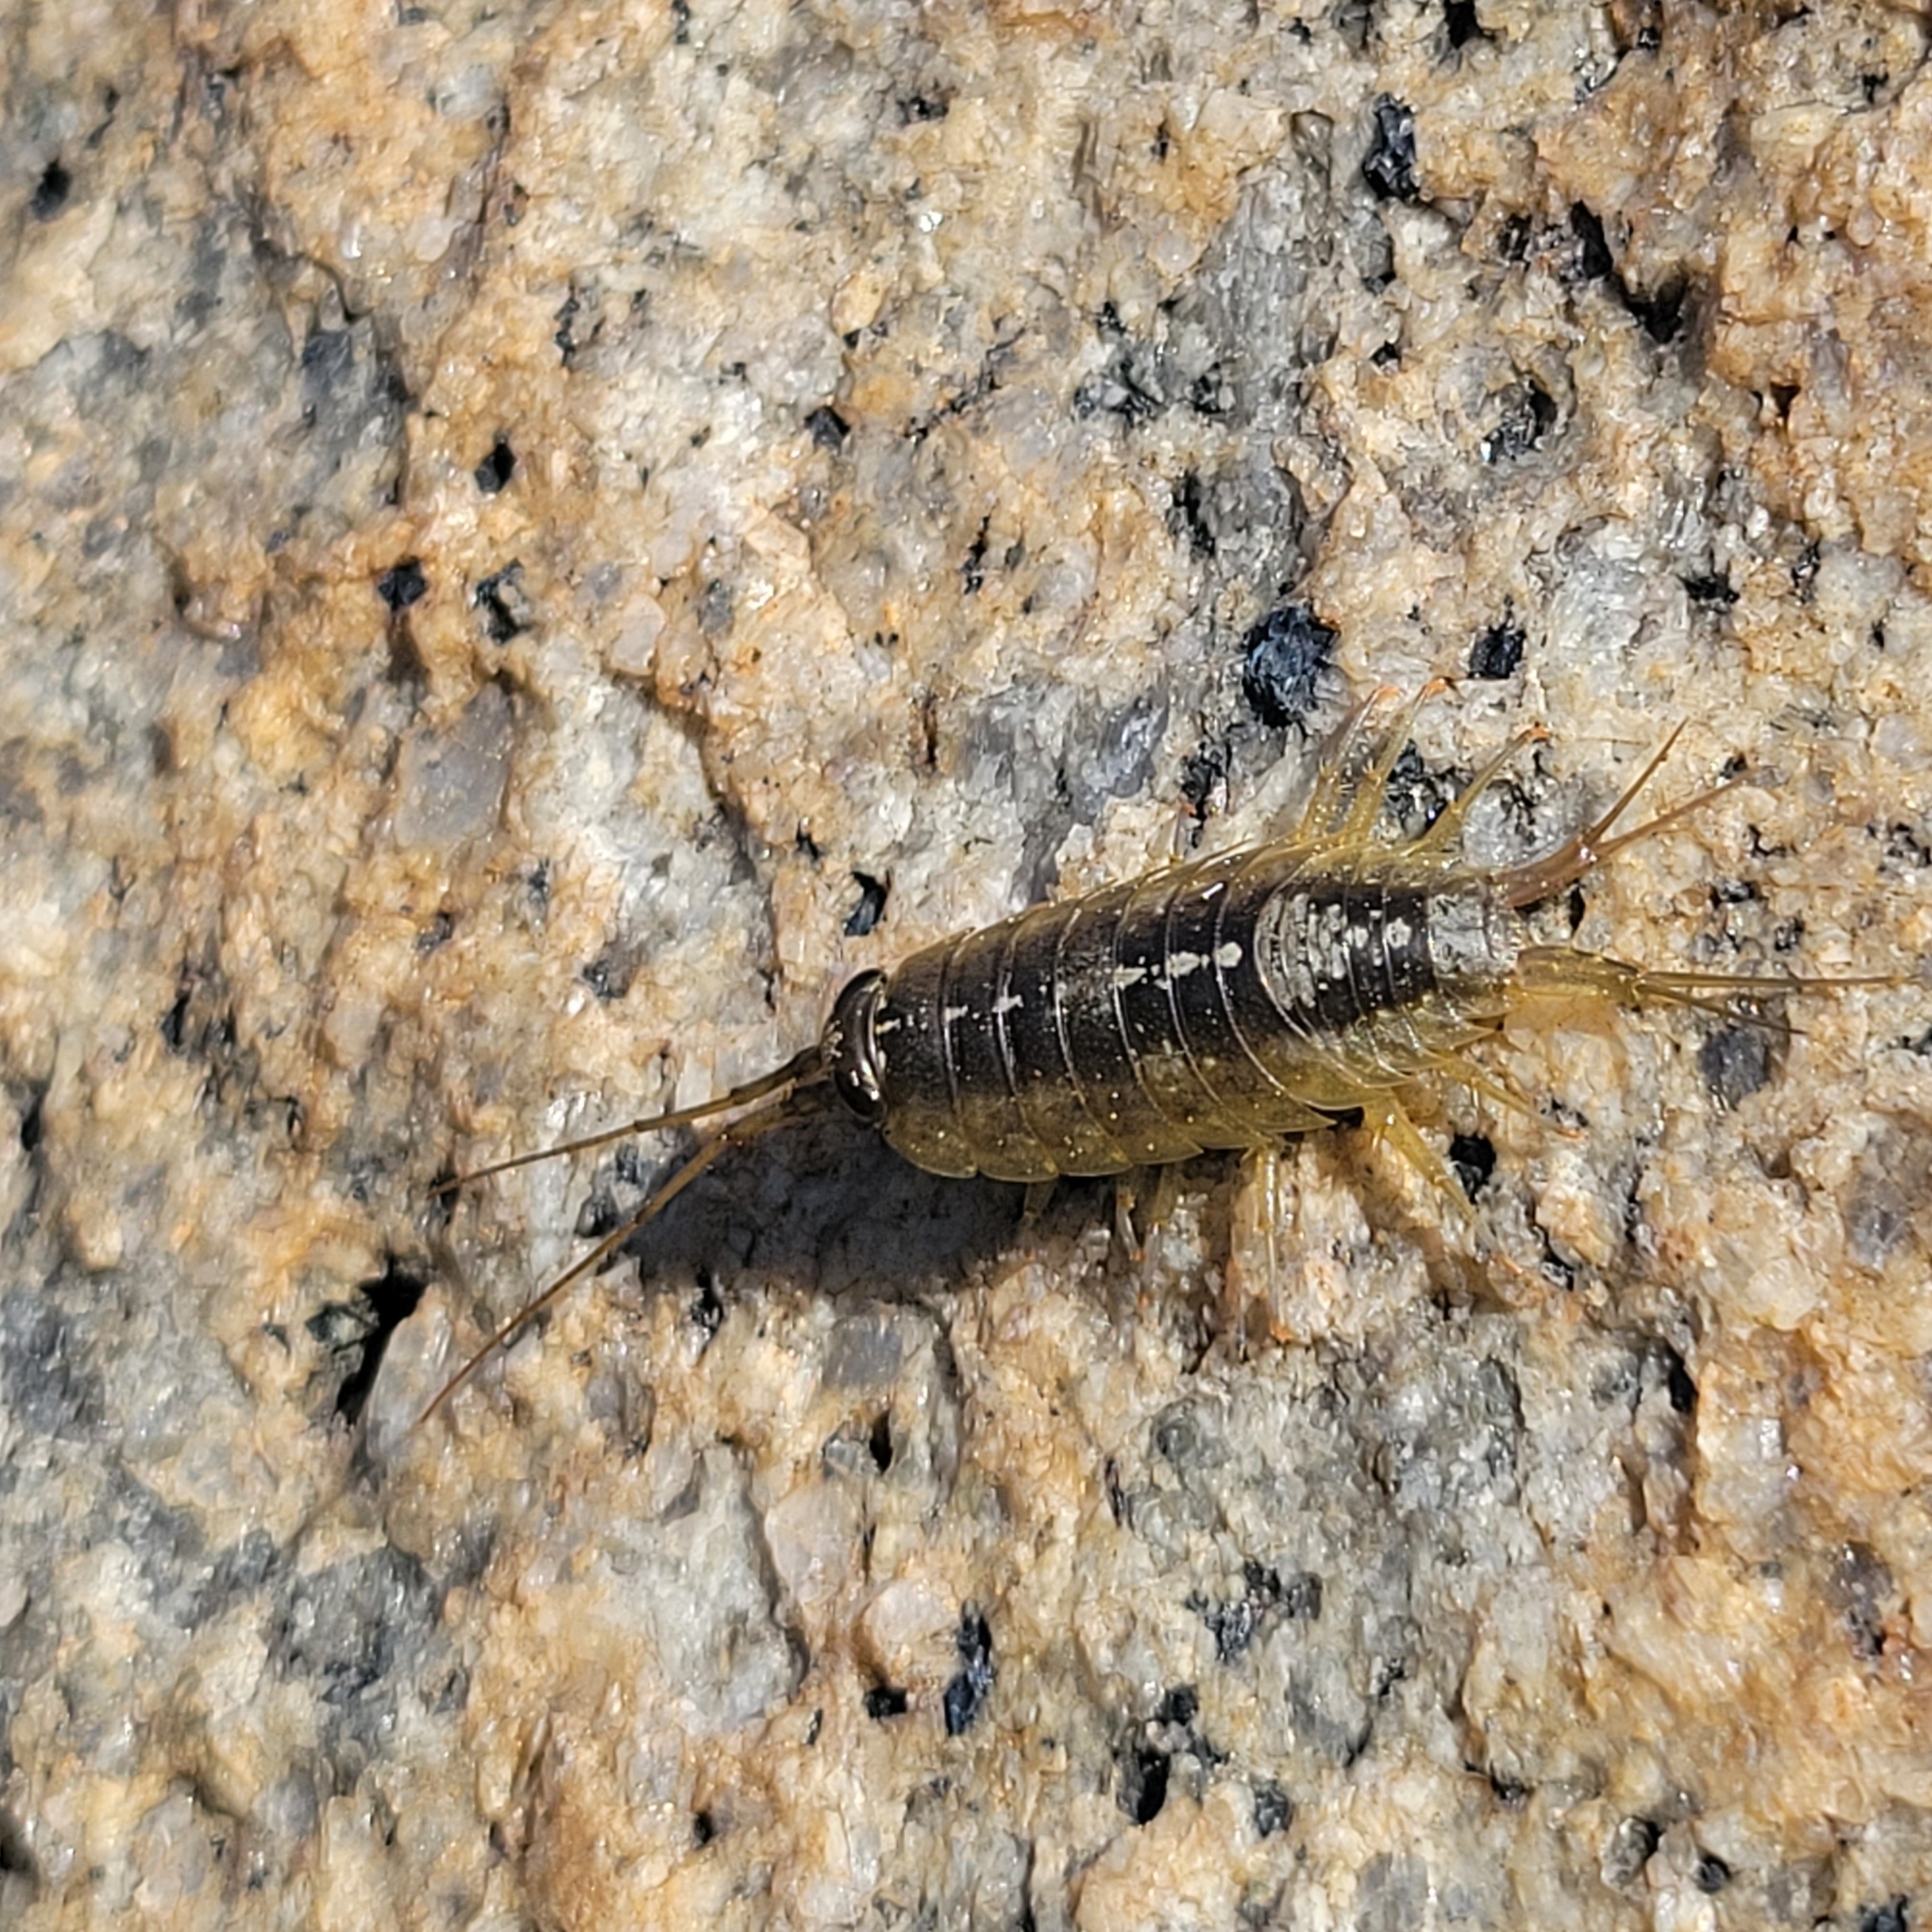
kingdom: Animalia
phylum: Arthropoda
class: Malacostraca
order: Isopoda
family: Ligiidae
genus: Ligia
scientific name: Ligia occidentalis
